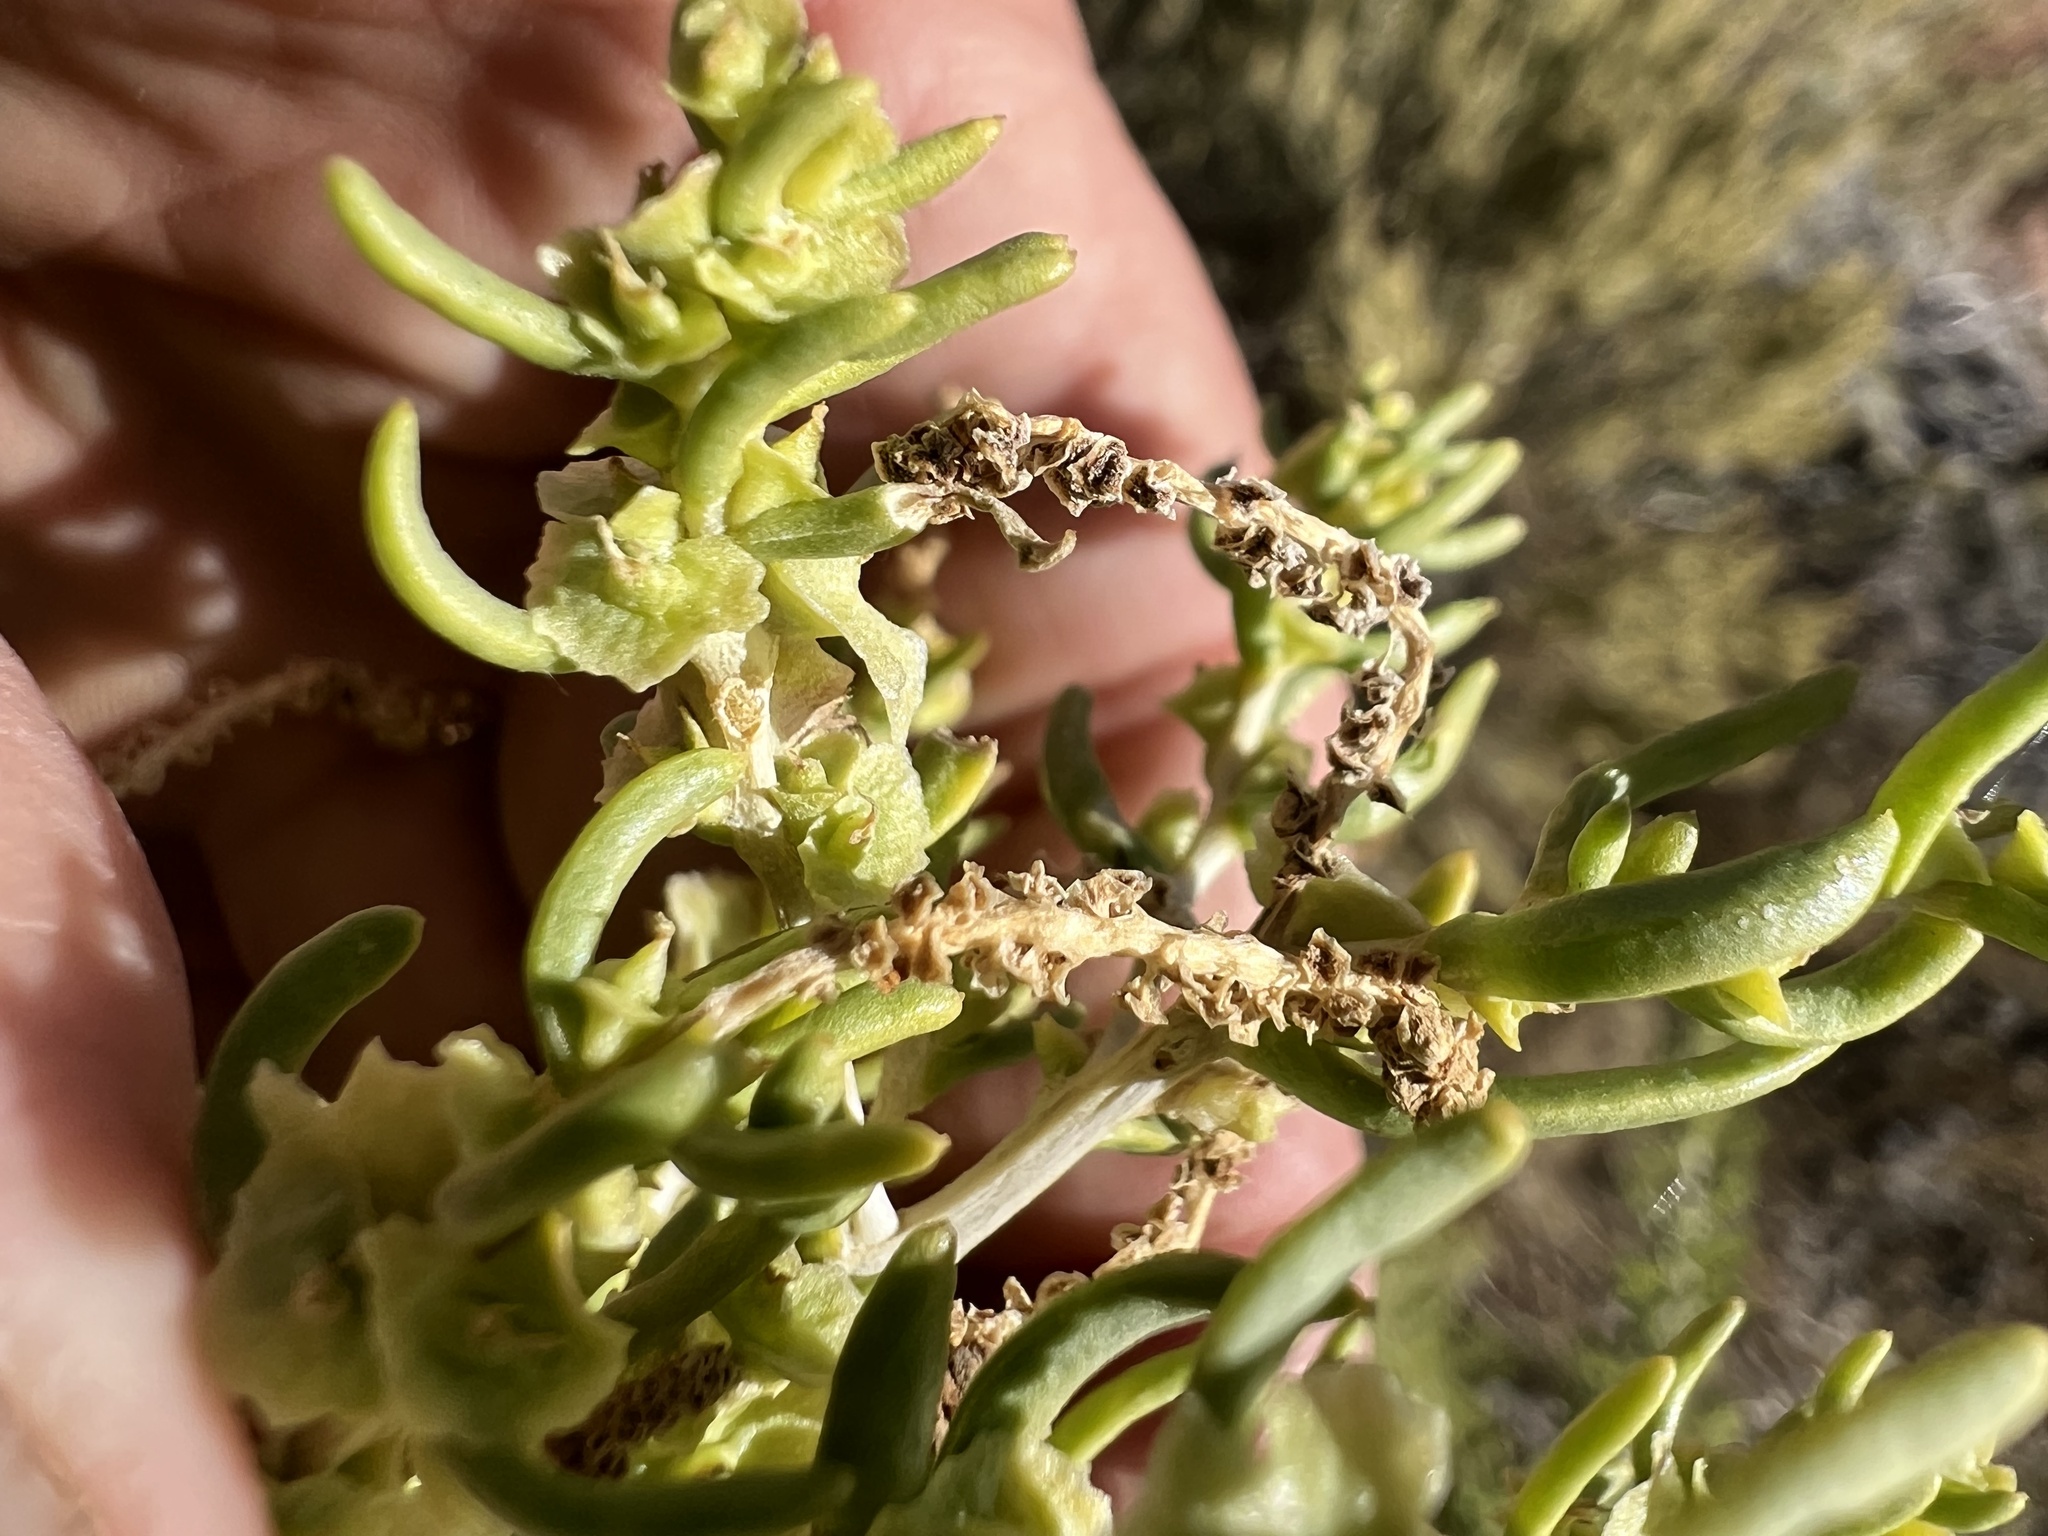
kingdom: Plantae
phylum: Tracheophyta
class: Magnoliopsida
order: Caryophyllales
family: Sarcobataceae
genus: Sarcobatus
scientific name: Sarcobatus vermiculatus
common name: Greasewood
